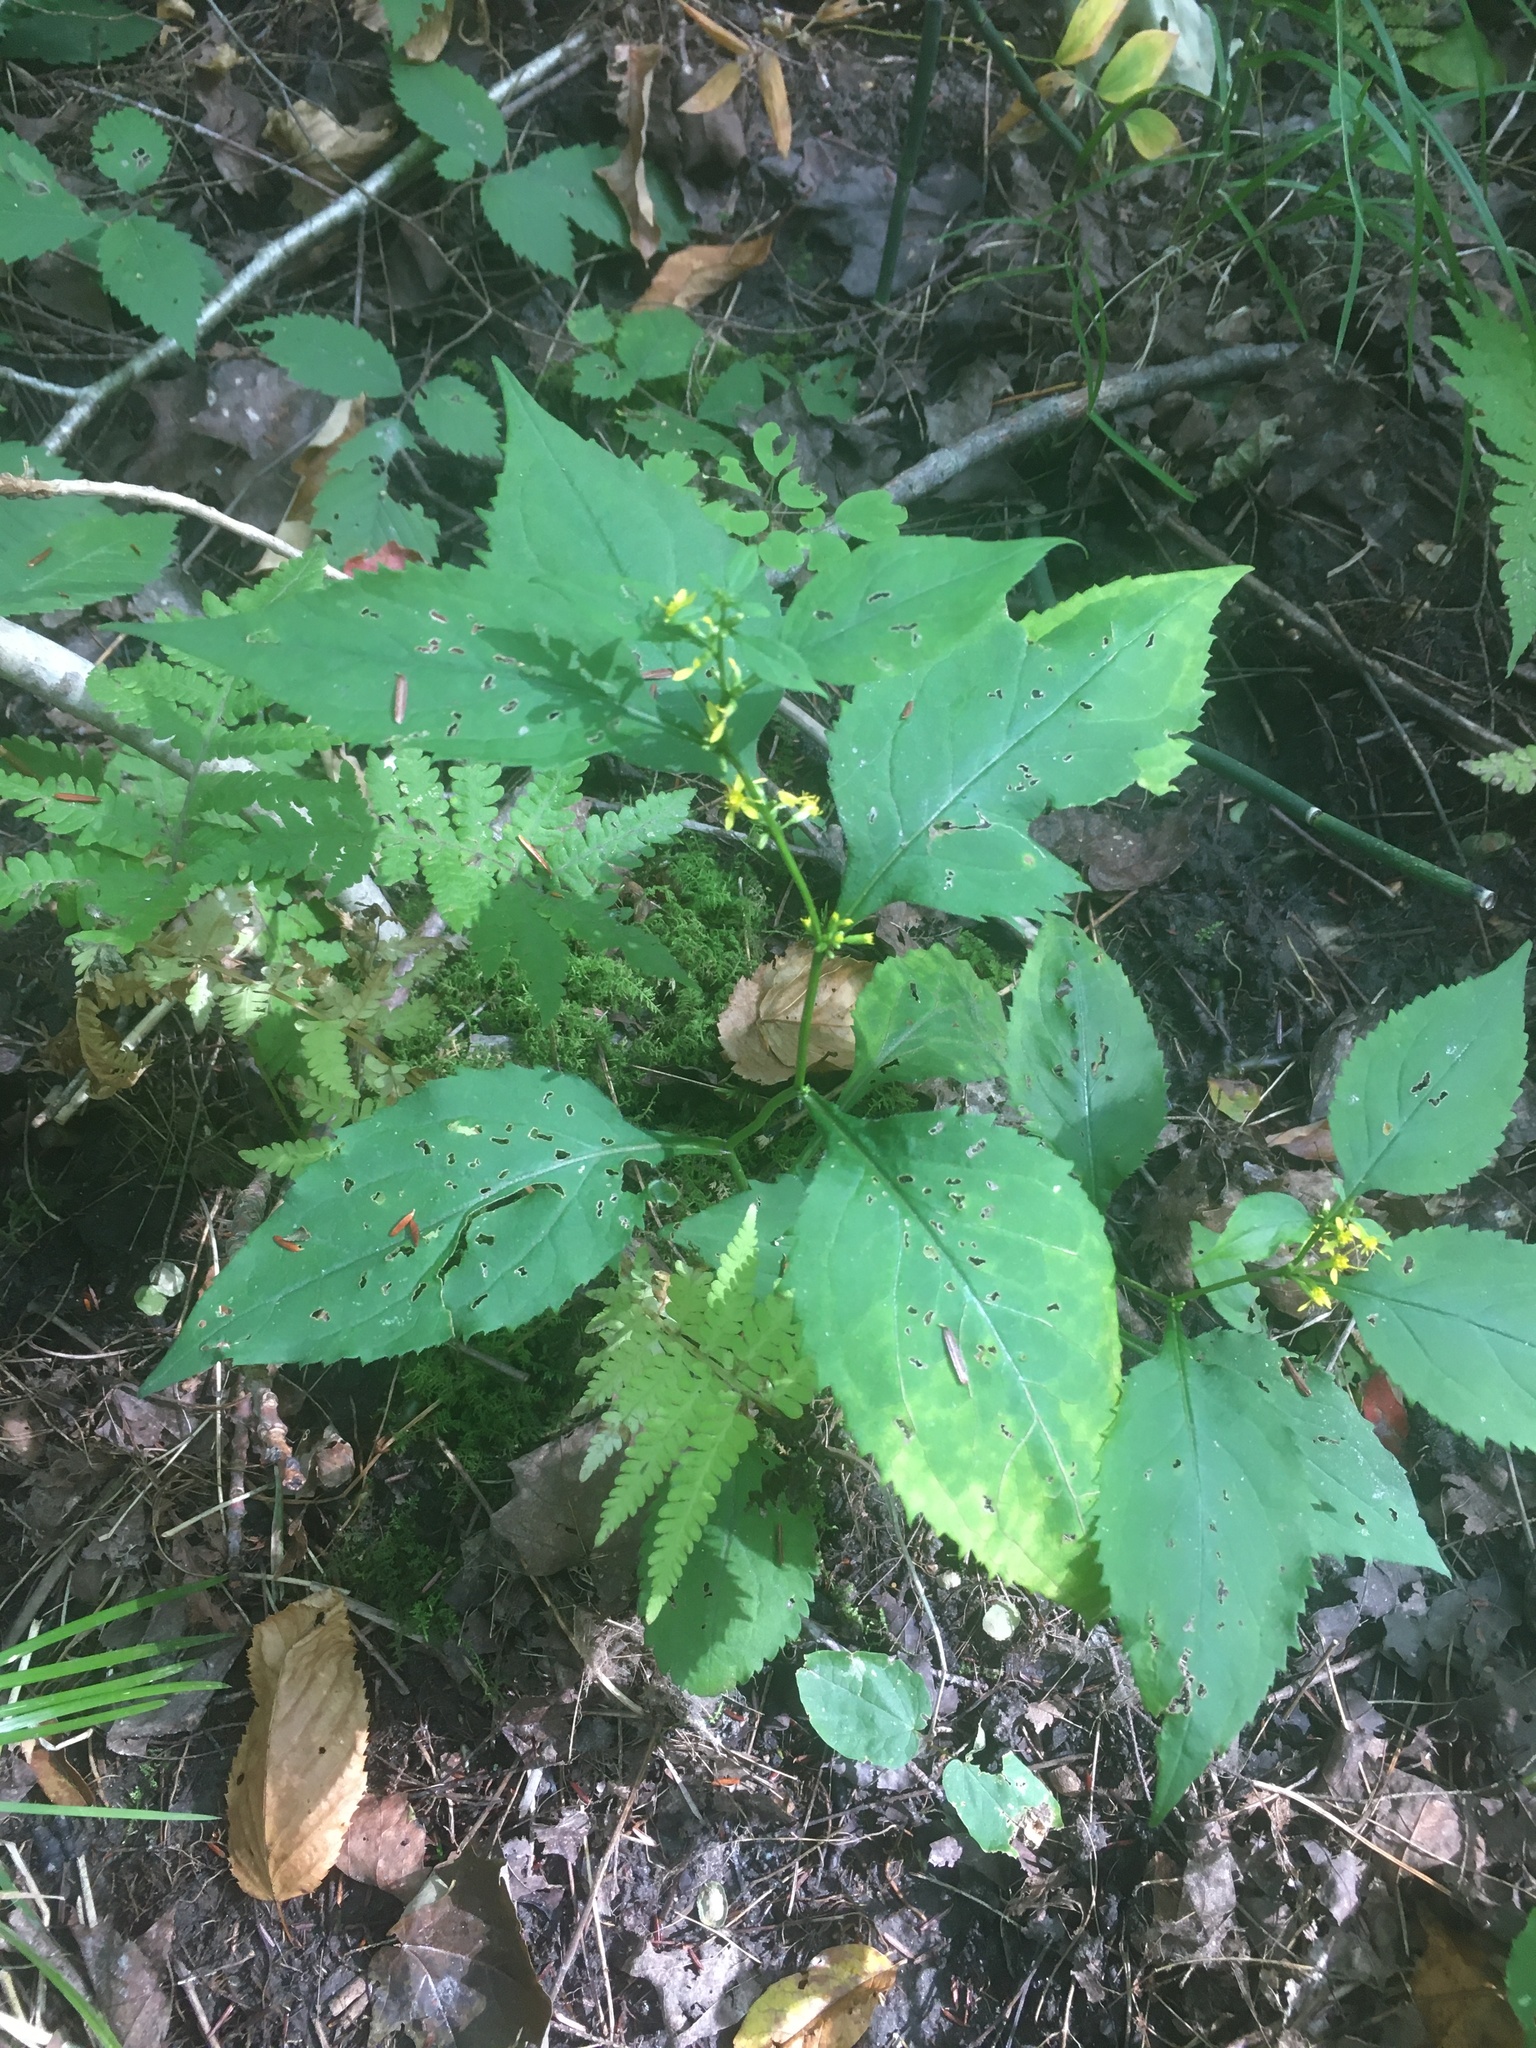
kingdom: Plantae
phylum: Tracheophyta
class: Magnoliopsida
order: Asterales
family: Asteraceae
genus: Solidago
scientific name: Solidago flexicaulis
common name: Zig-zag goldenrod
